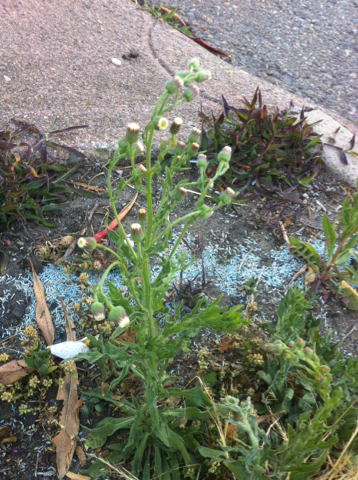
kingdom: Plantae
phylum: Tracheophyta
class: Magnoliopsida
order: Asterales
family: Asteraceae
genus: Erigeron
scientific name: Erigeron bonariensis
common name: Argentine fleabane
